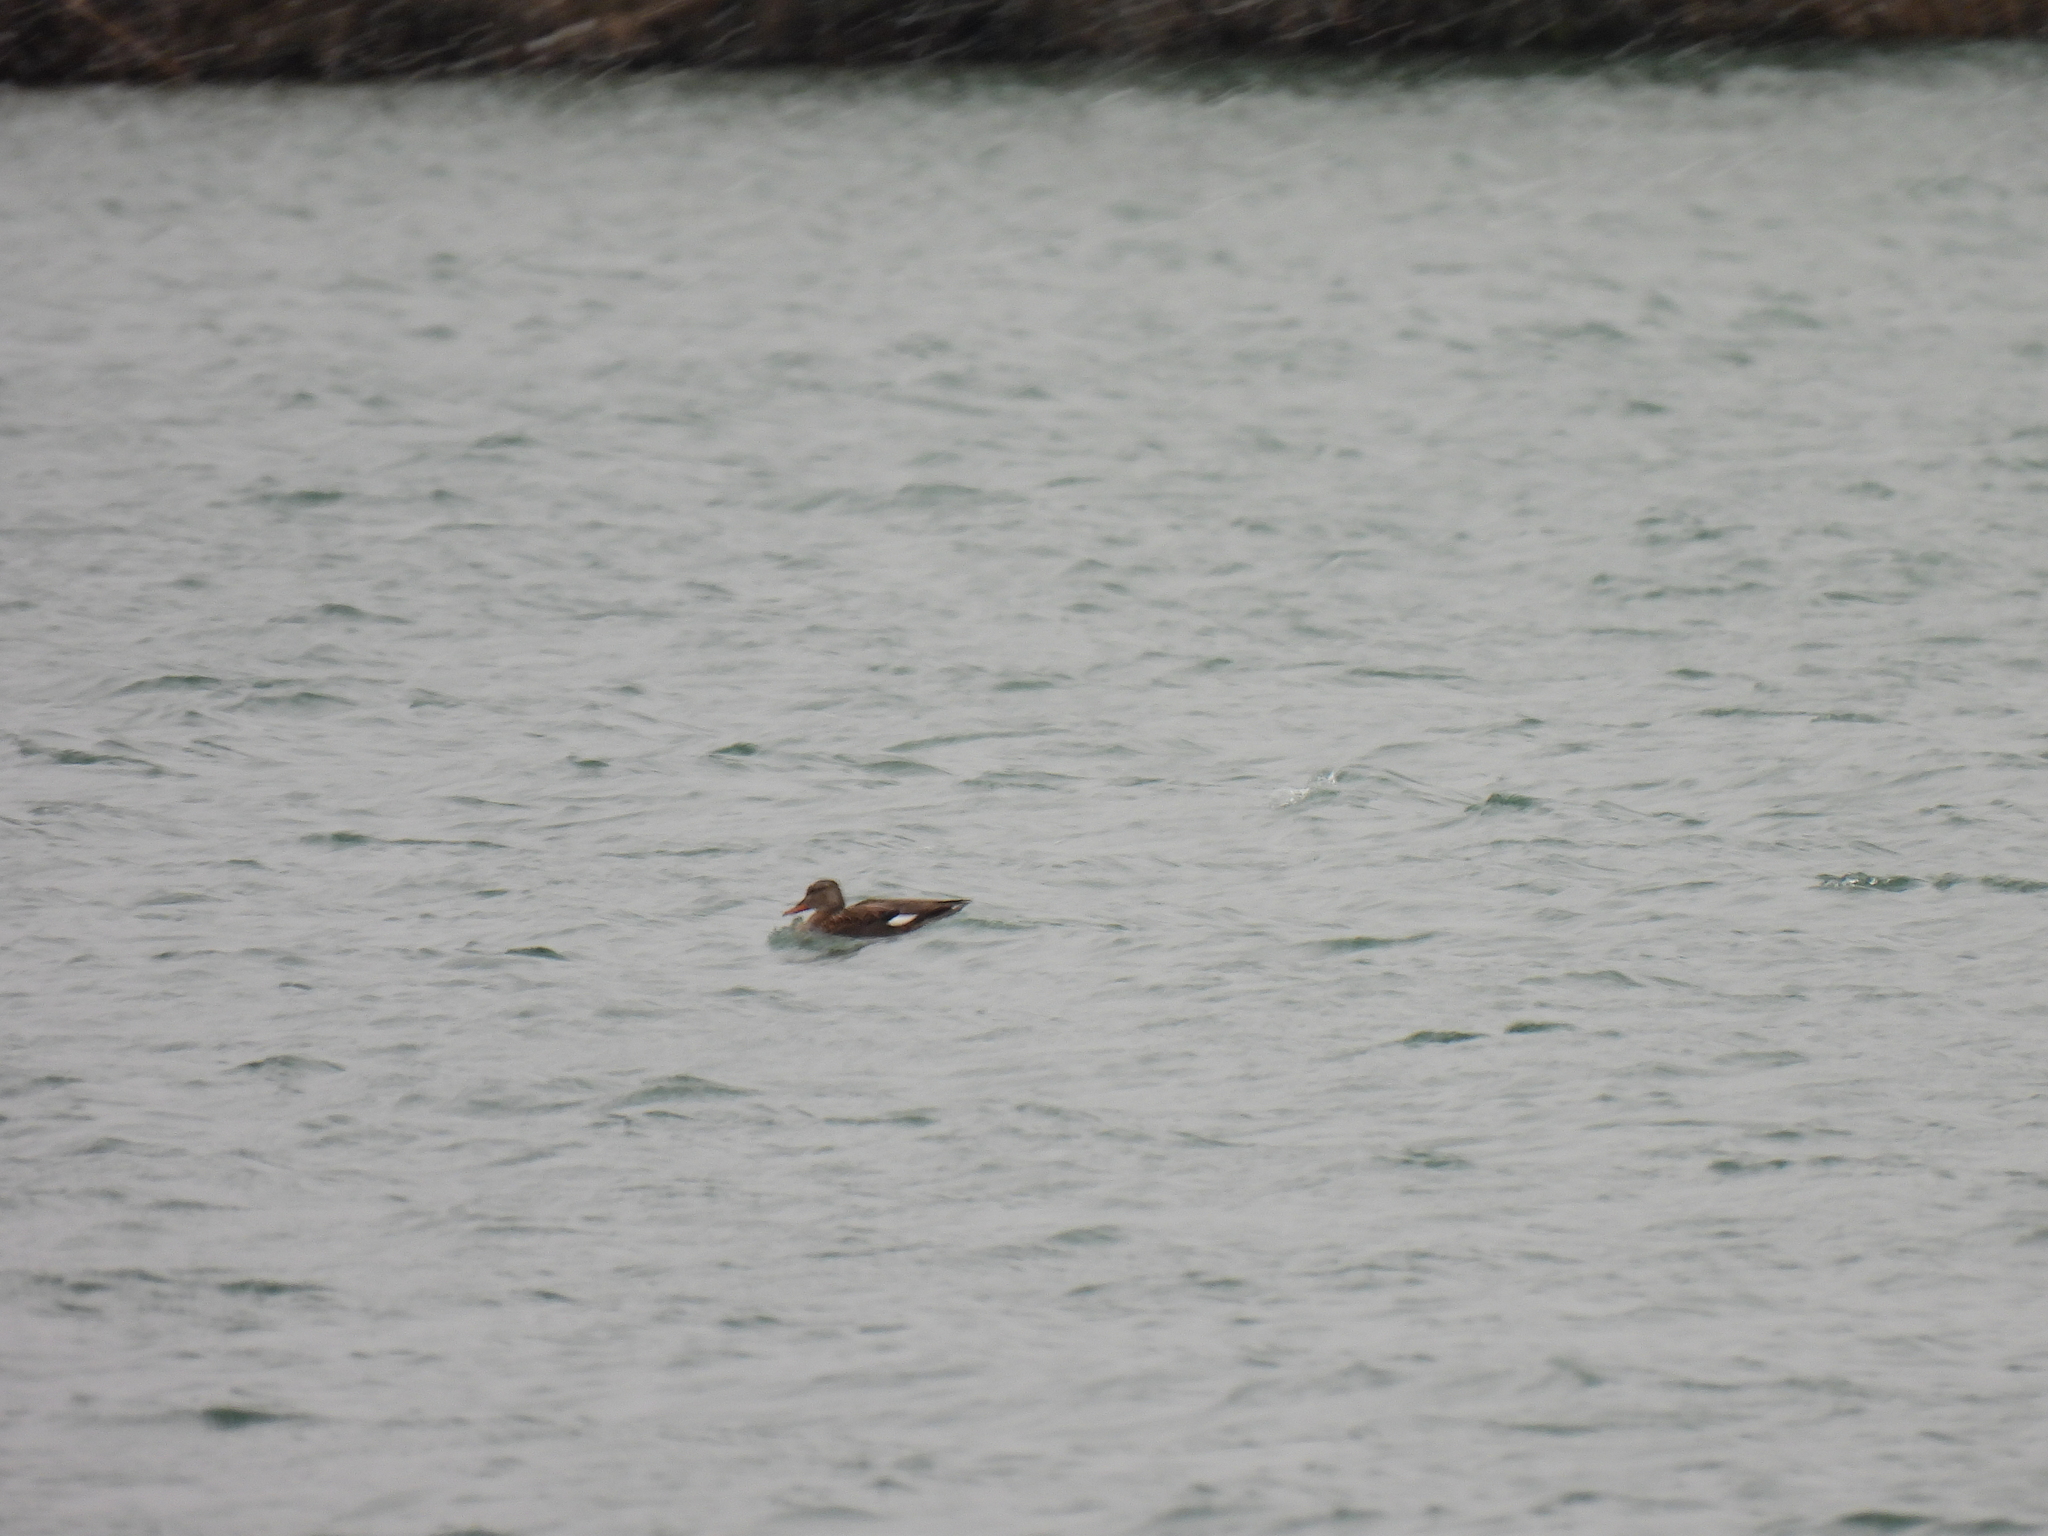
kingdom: Animalia
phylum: Chordata
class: Aves
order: Anseriformes
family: Anatidae
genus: Mareca
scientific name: Mareca strepera
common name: Gadwall
